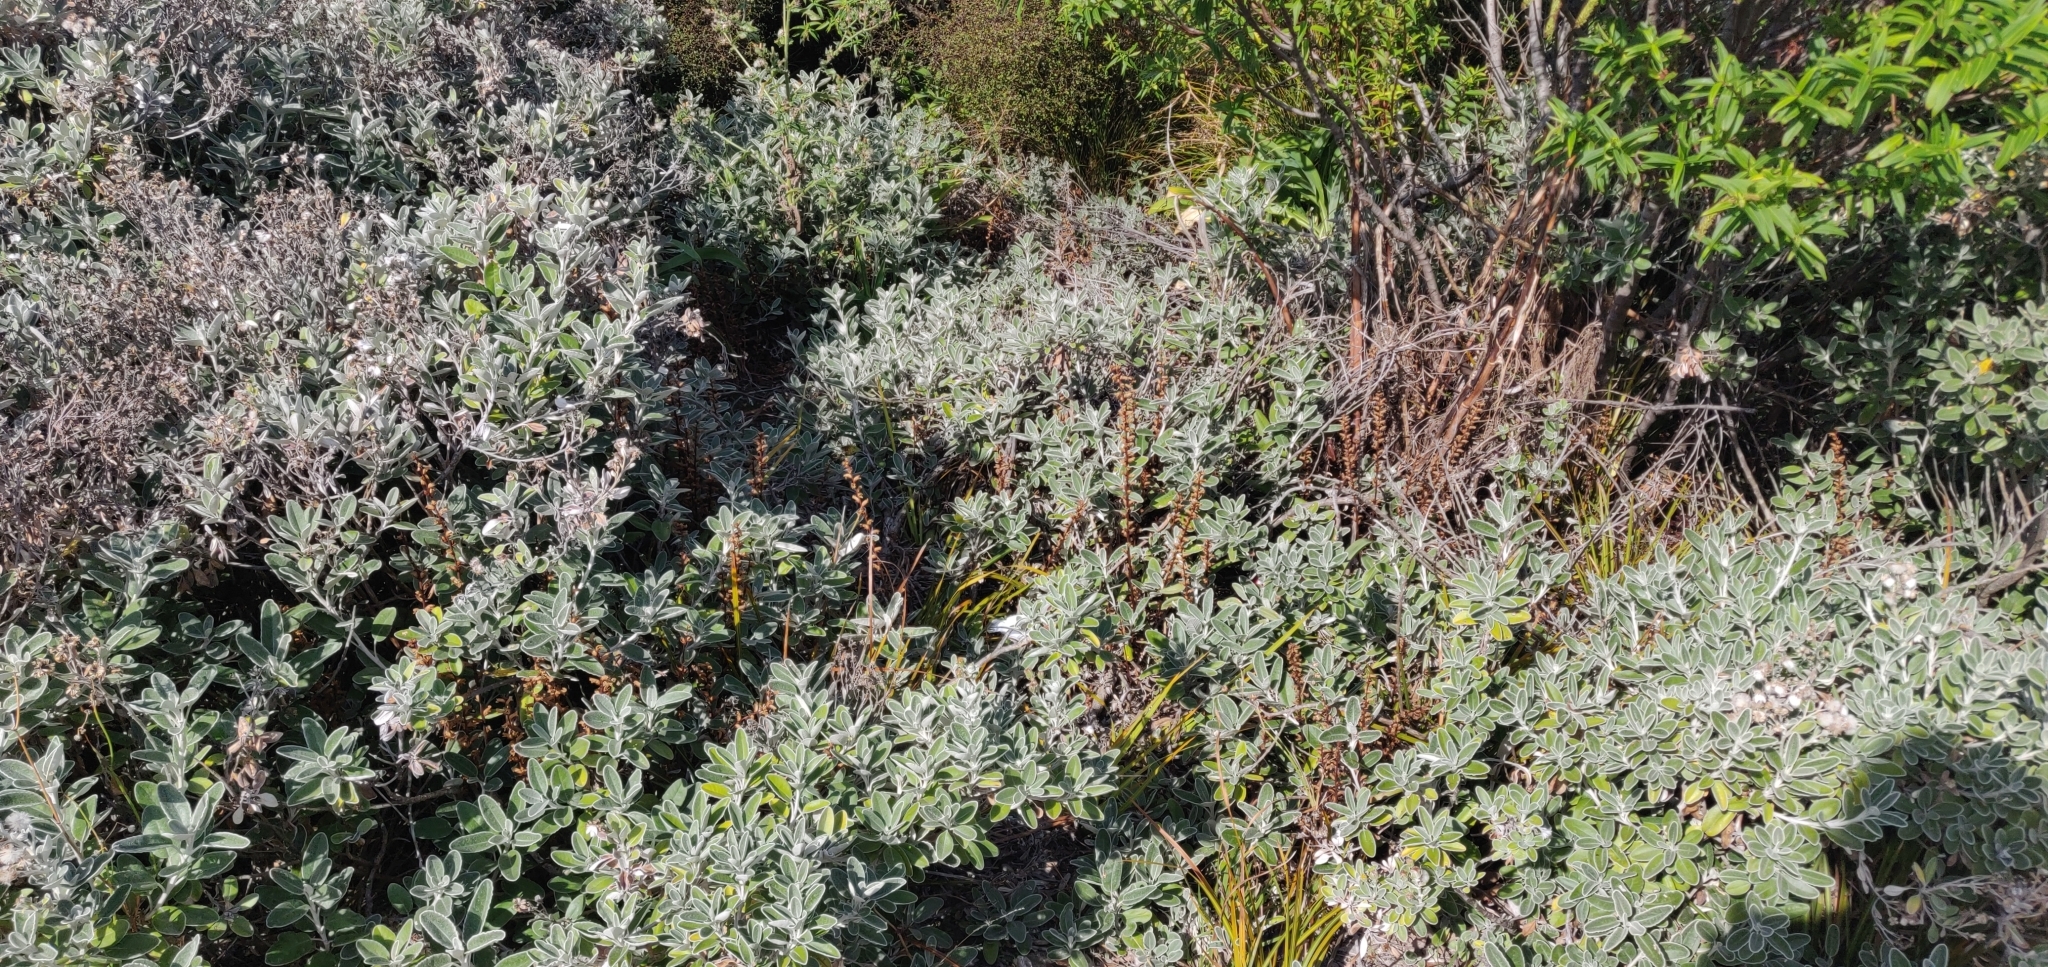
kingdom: Plantae
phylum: Tracheophyta
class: Magnoliopsida
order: Lamiales
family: Orobanchaceae
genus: Orobanche
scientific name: Orobanche minor
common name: Common broomrape
